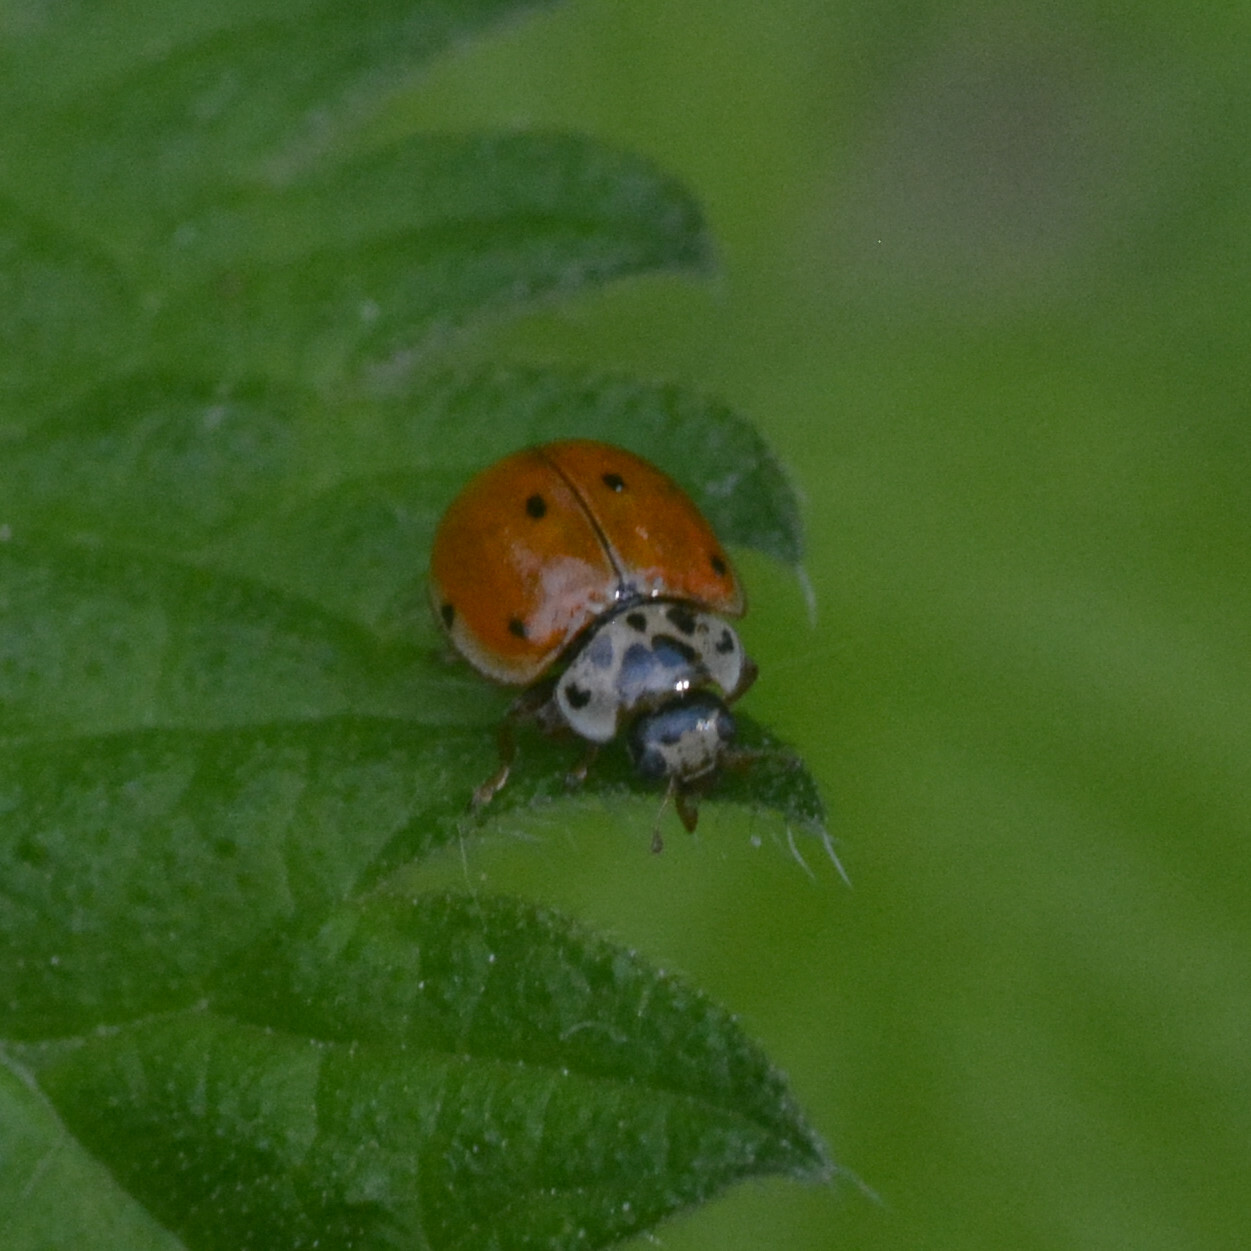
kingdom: Animalia
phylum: Arthropoda
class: Insecta
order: Coleoptera
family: Coccinellidae
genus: Adalia
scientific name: Adalia decempunctata
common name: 10-spot ladybird
